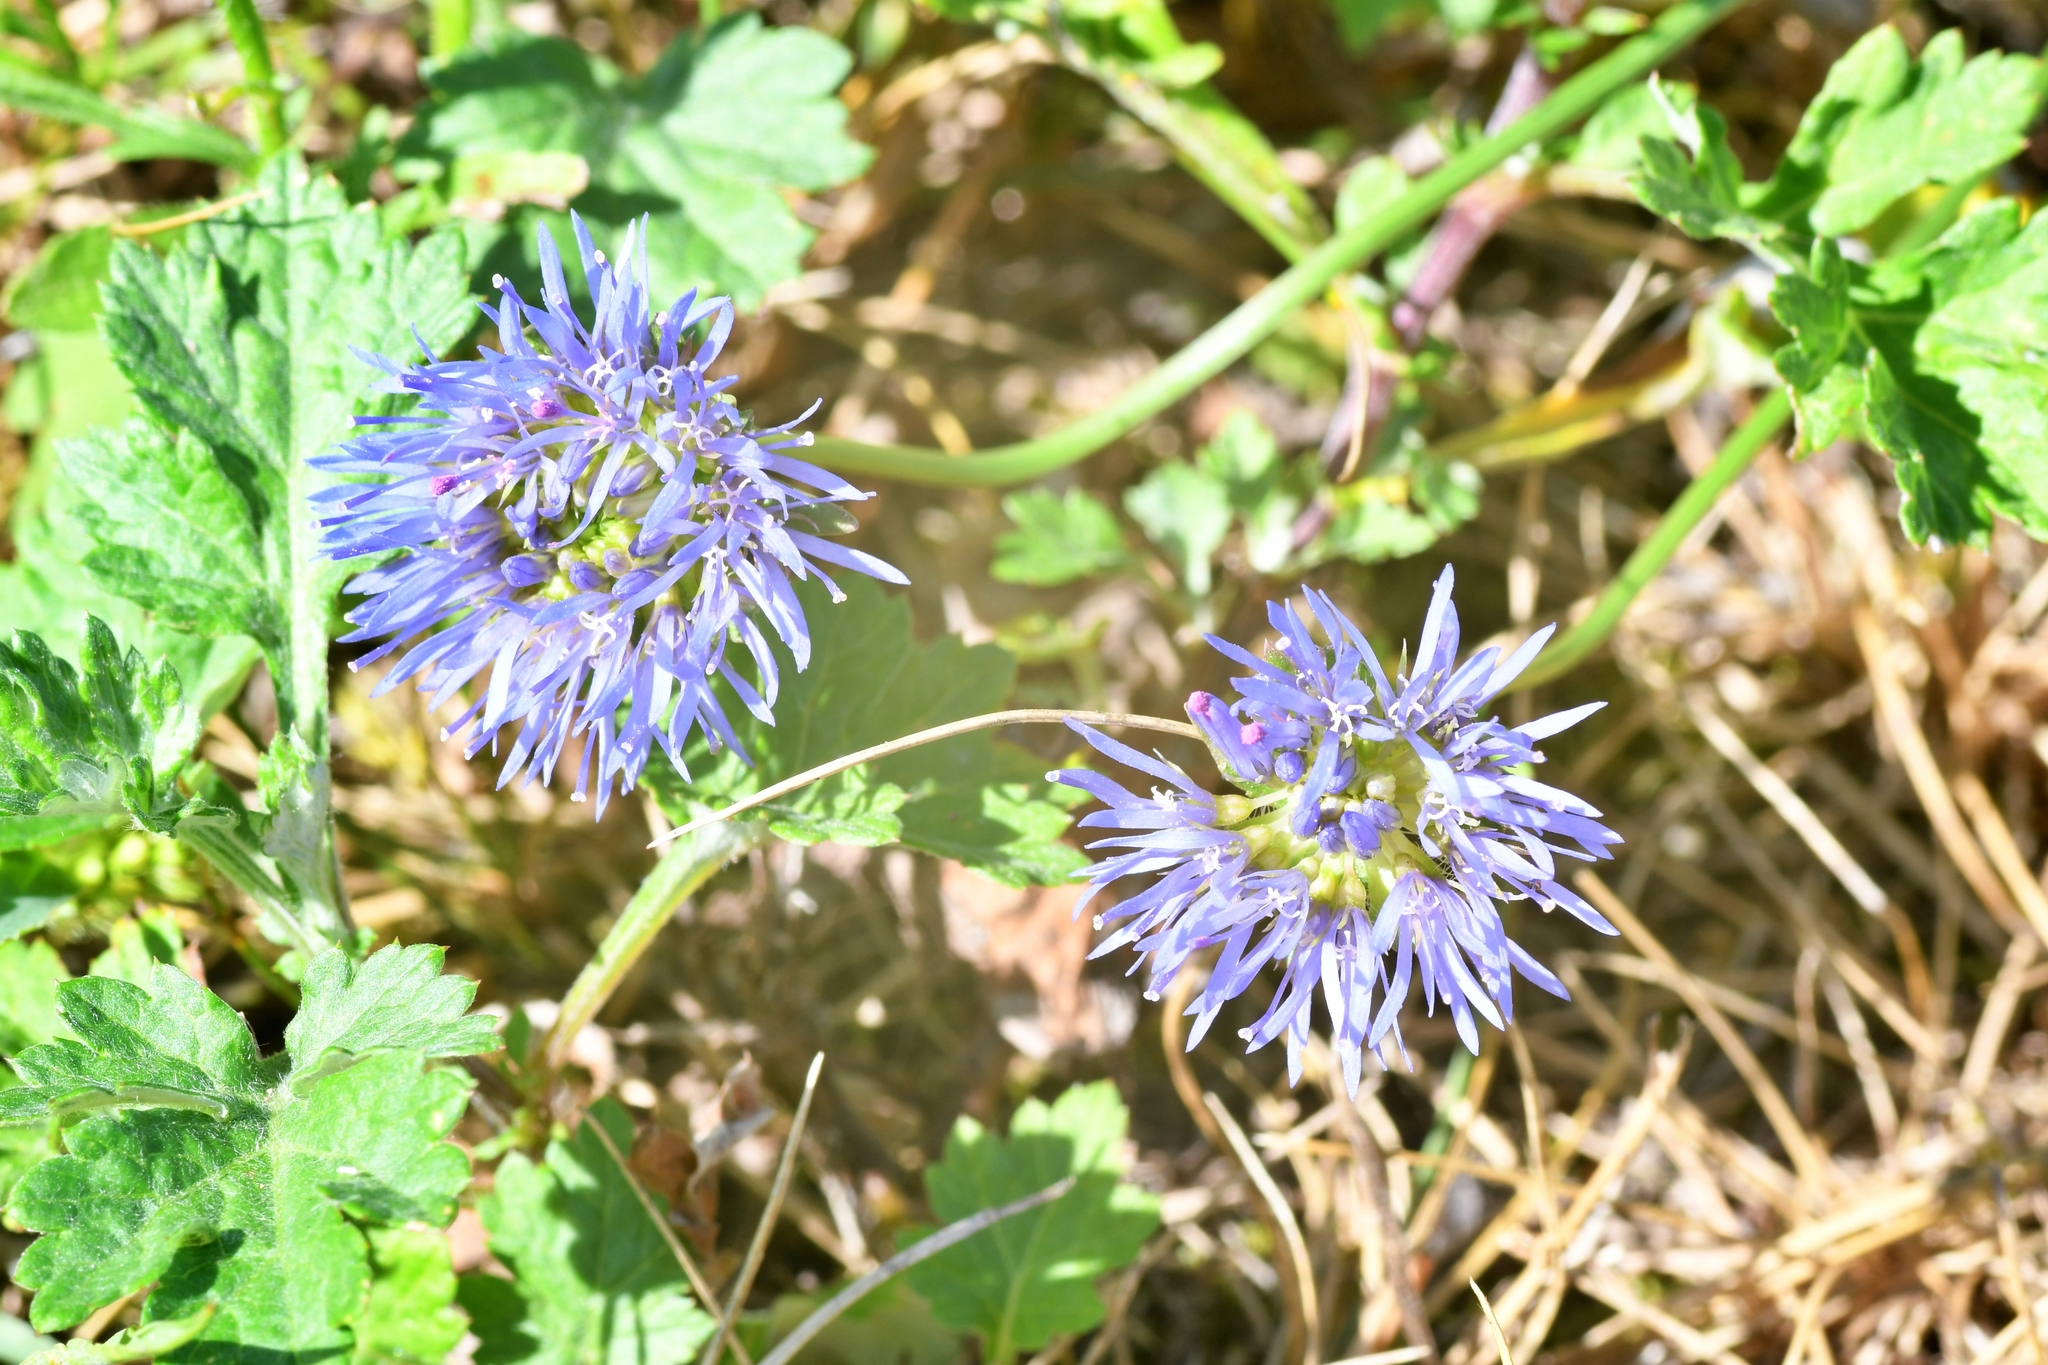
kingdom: Plantae
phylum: Tracheophyta
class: Magnoliopsida
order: Asterales
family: Campanulaceae
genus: Jasione
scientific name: Jasione montana
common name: Sheep's-bit
